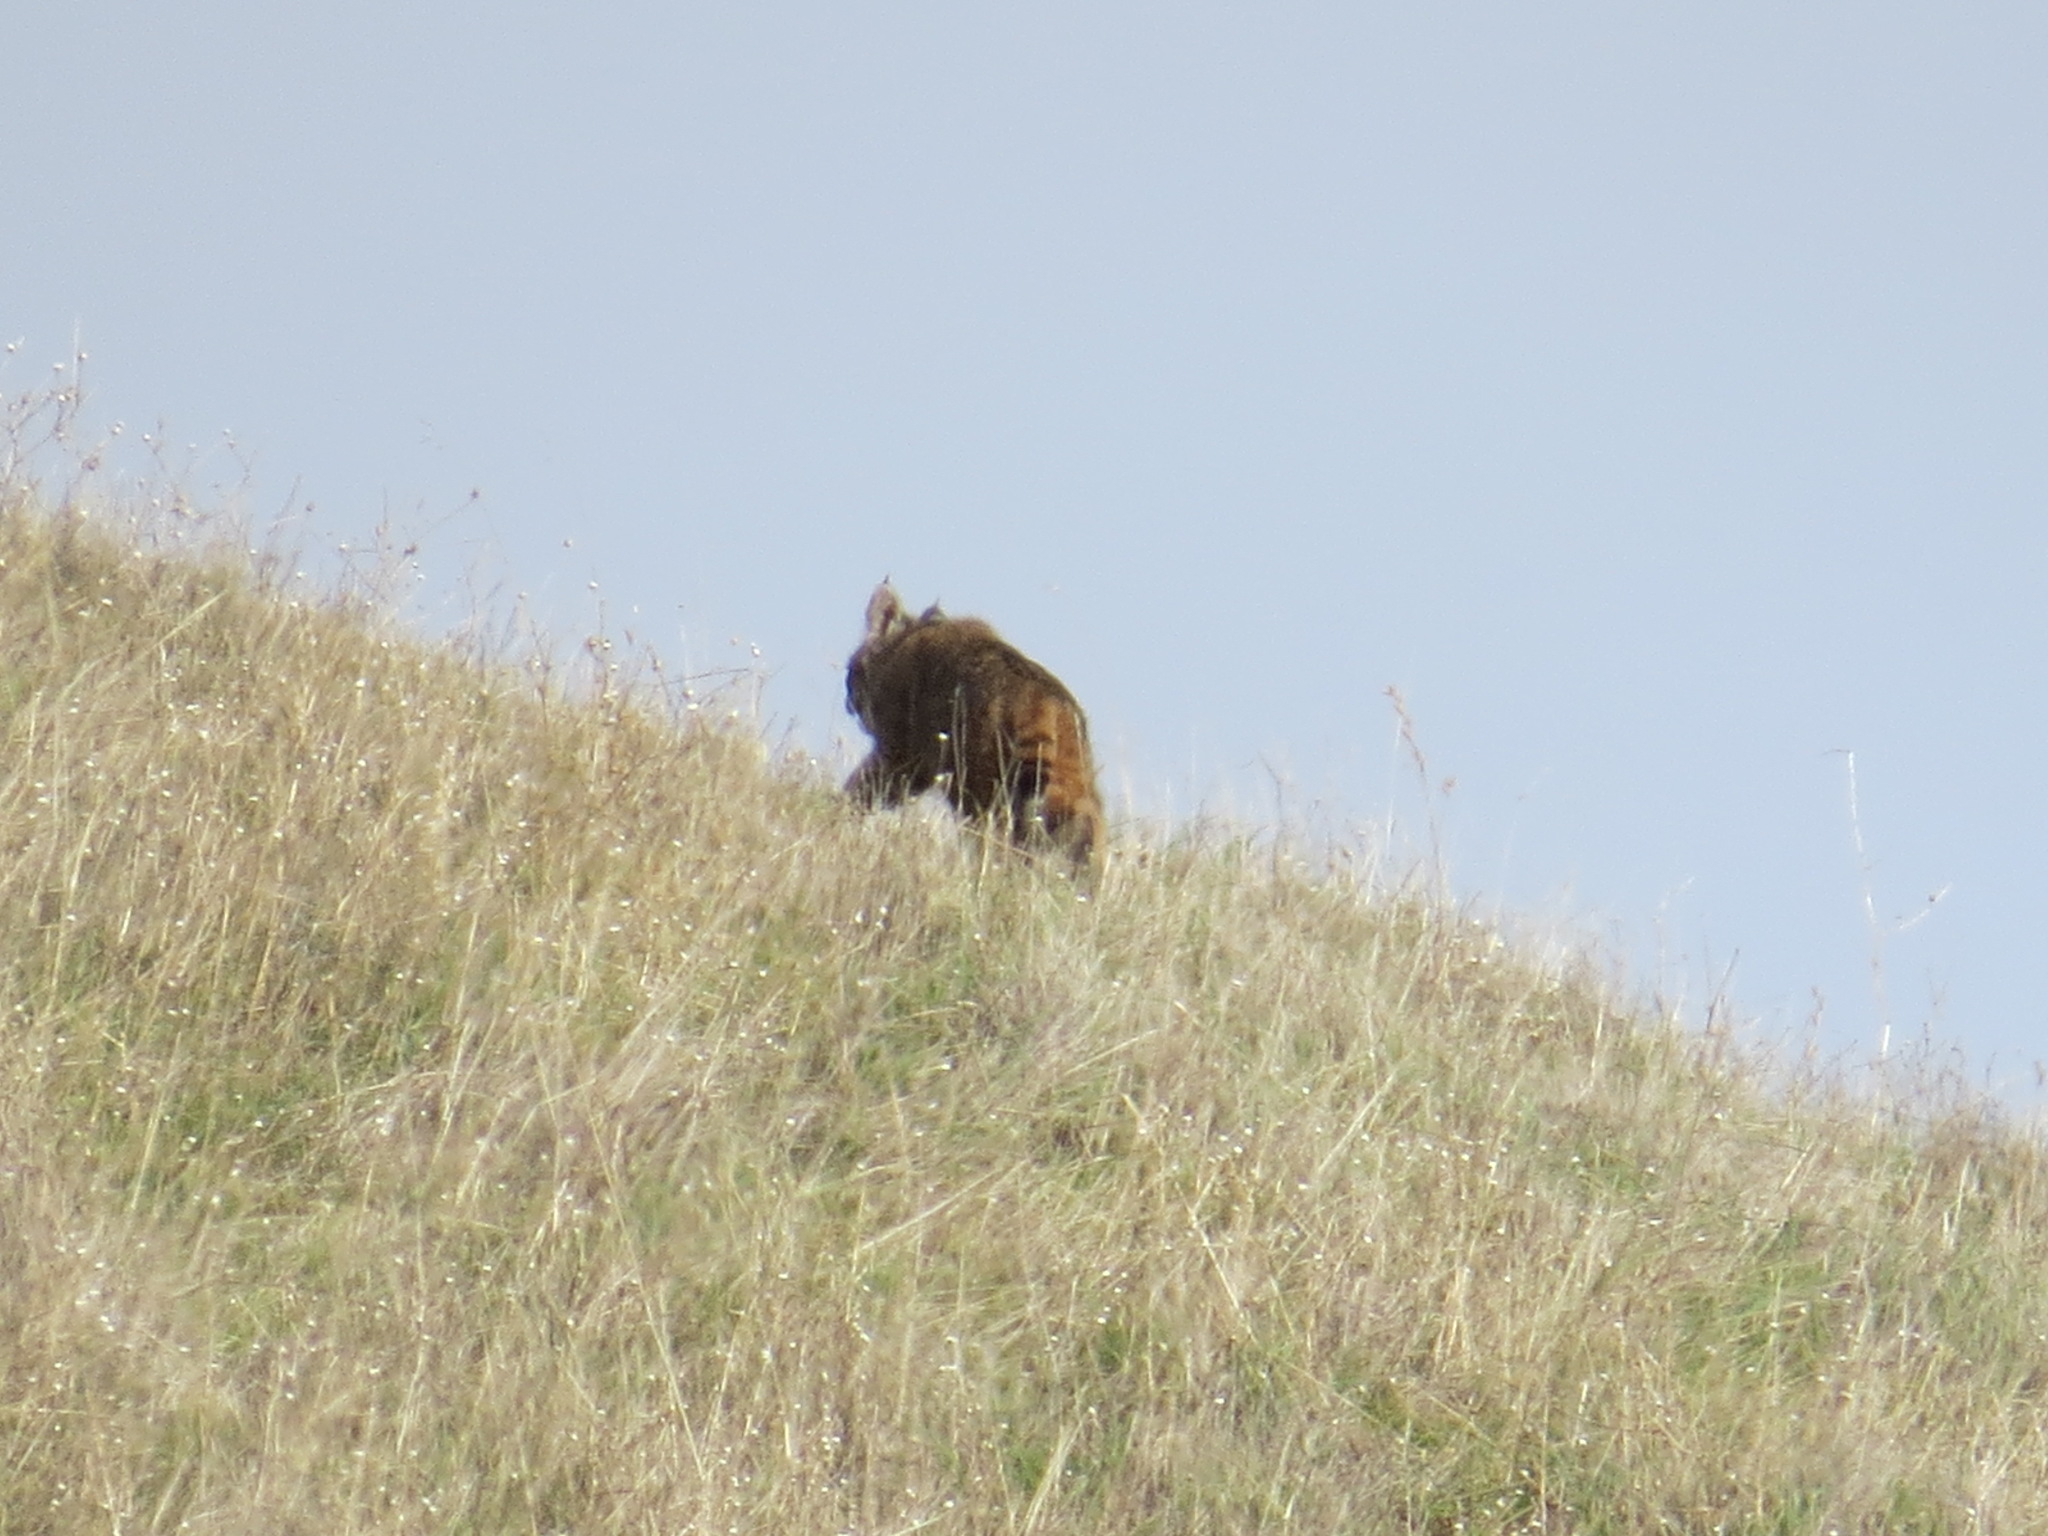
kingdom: Animalia
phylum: Chordata
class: Mammalia
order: Carnivora
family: Felidae
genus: Lynx
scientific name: Lynx rufus
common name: Bobcat
